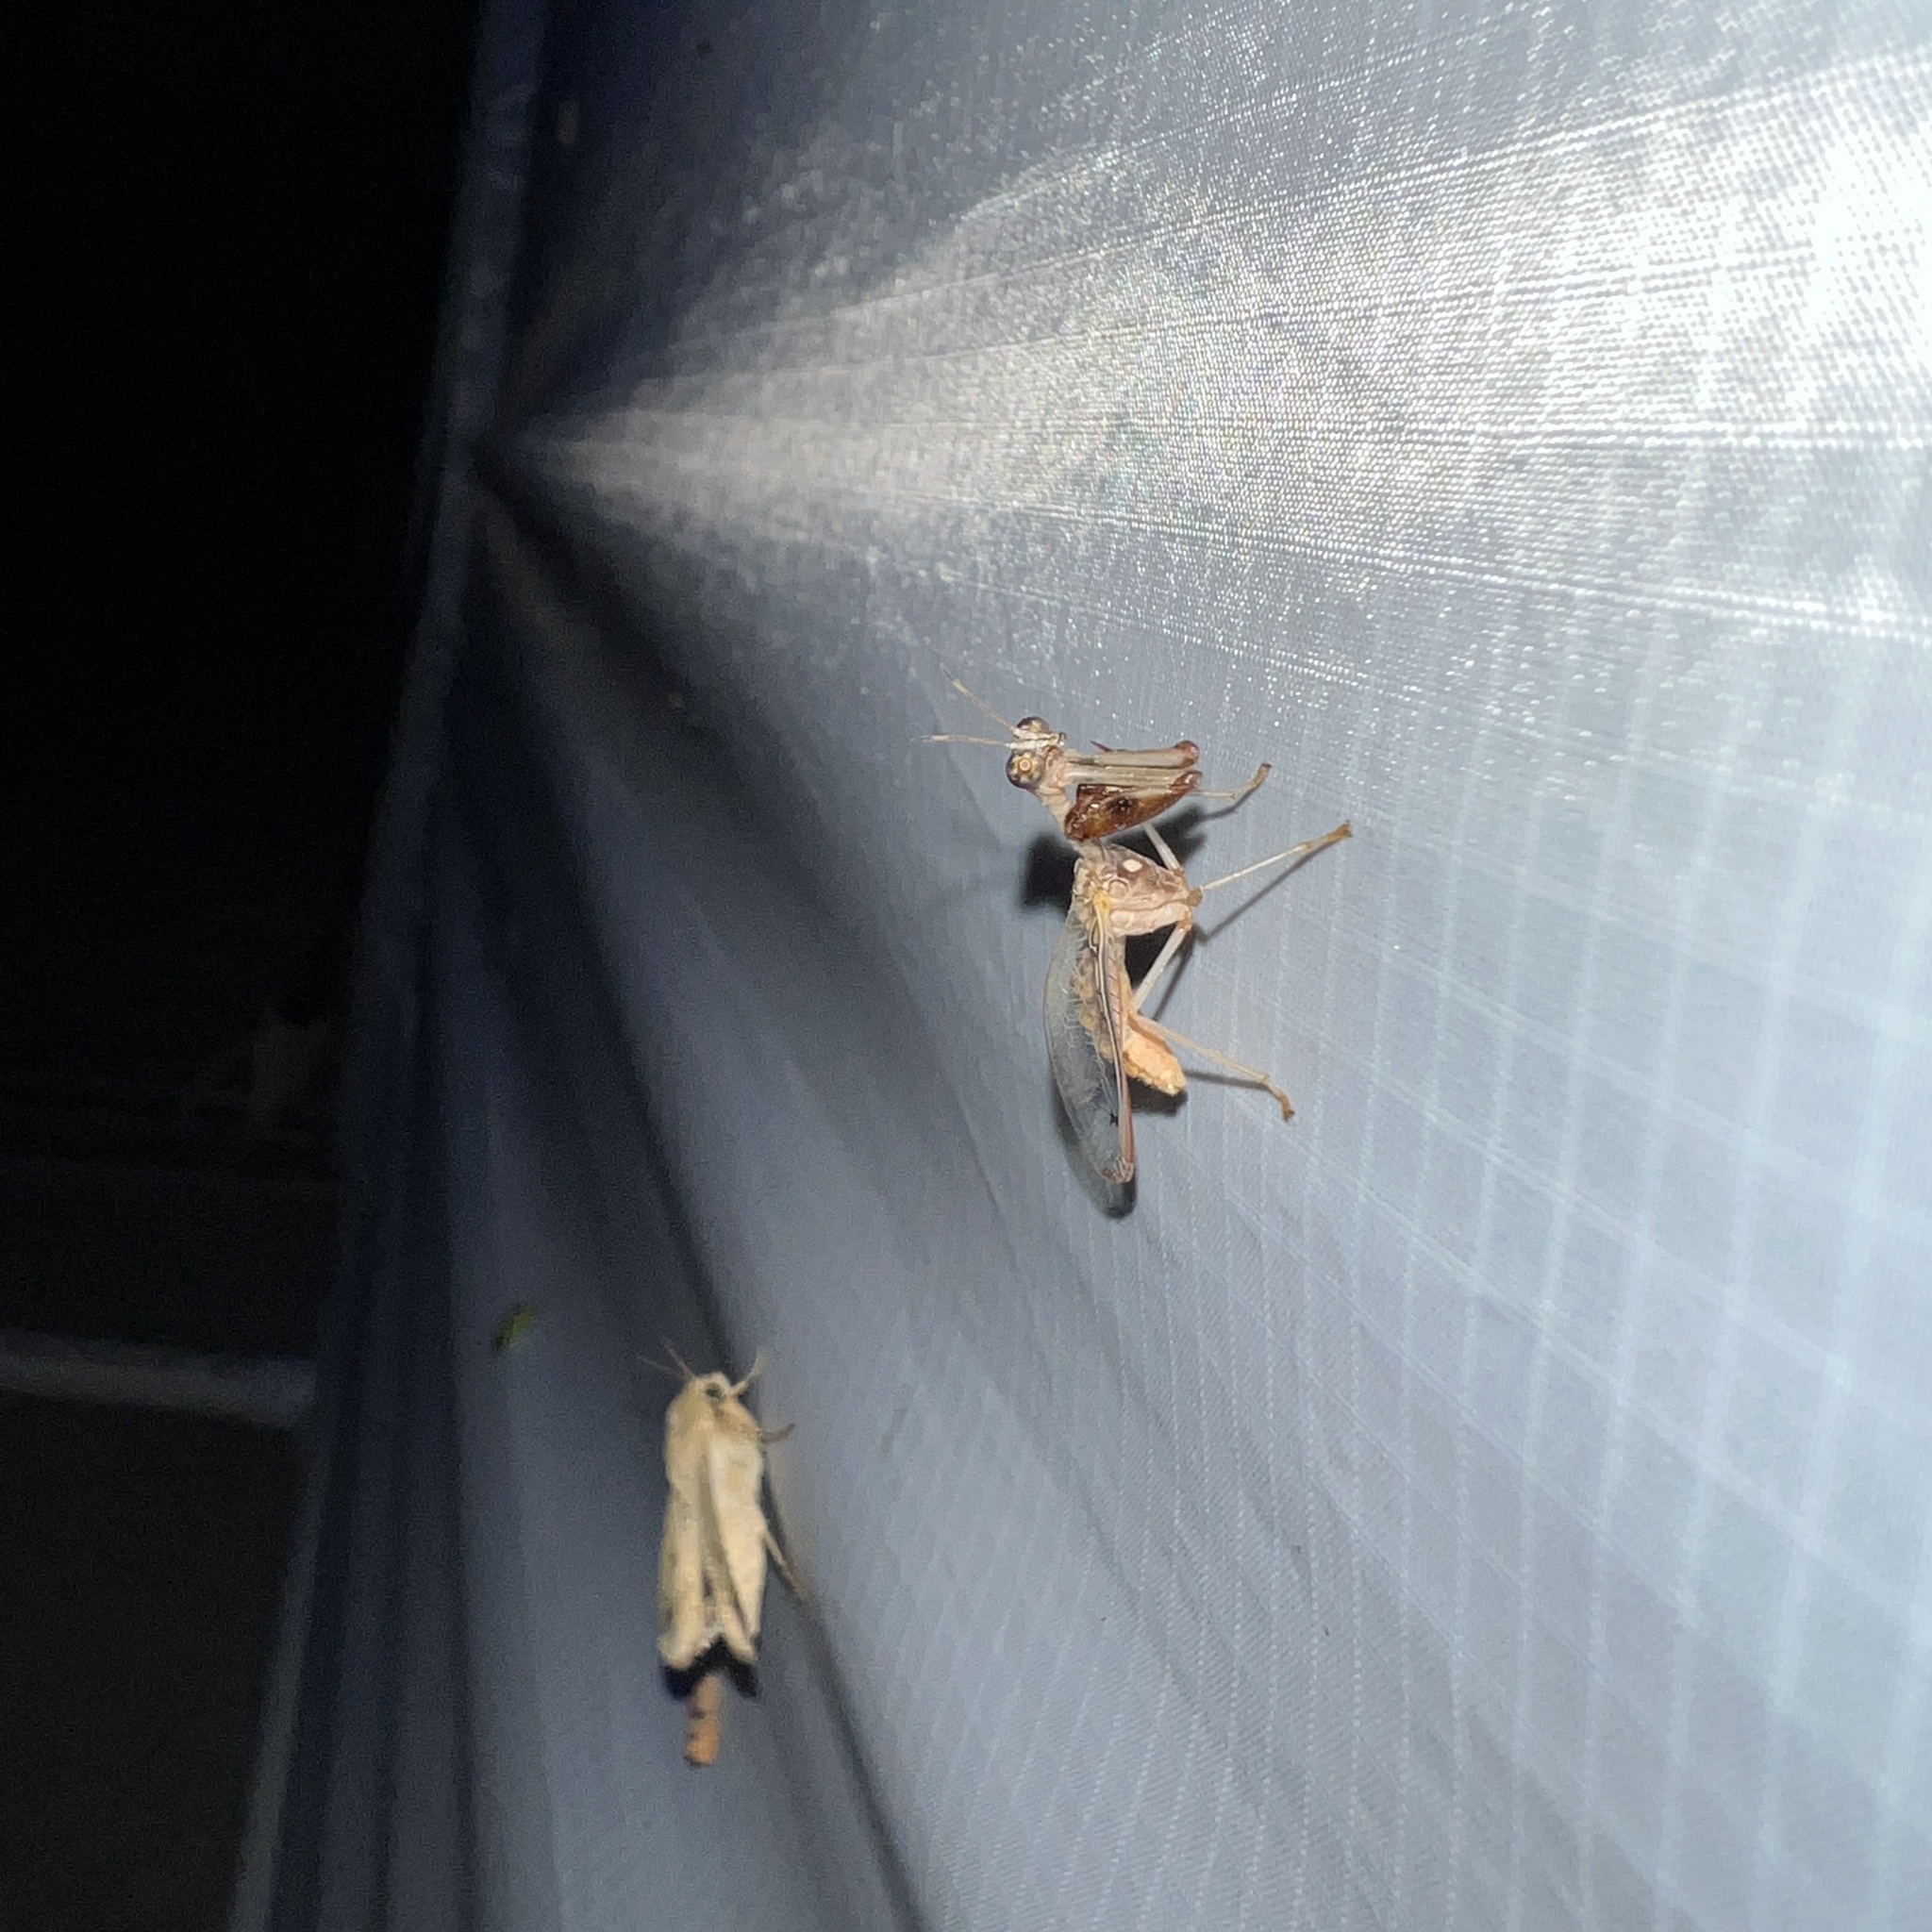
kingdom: Animalia
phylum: Arthropoda
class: Insecta
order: Neuroptera
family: Mantispidae
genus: Dicromantispa
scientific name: Dicromantispa interrupta
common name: Four-spotted mantidfly
